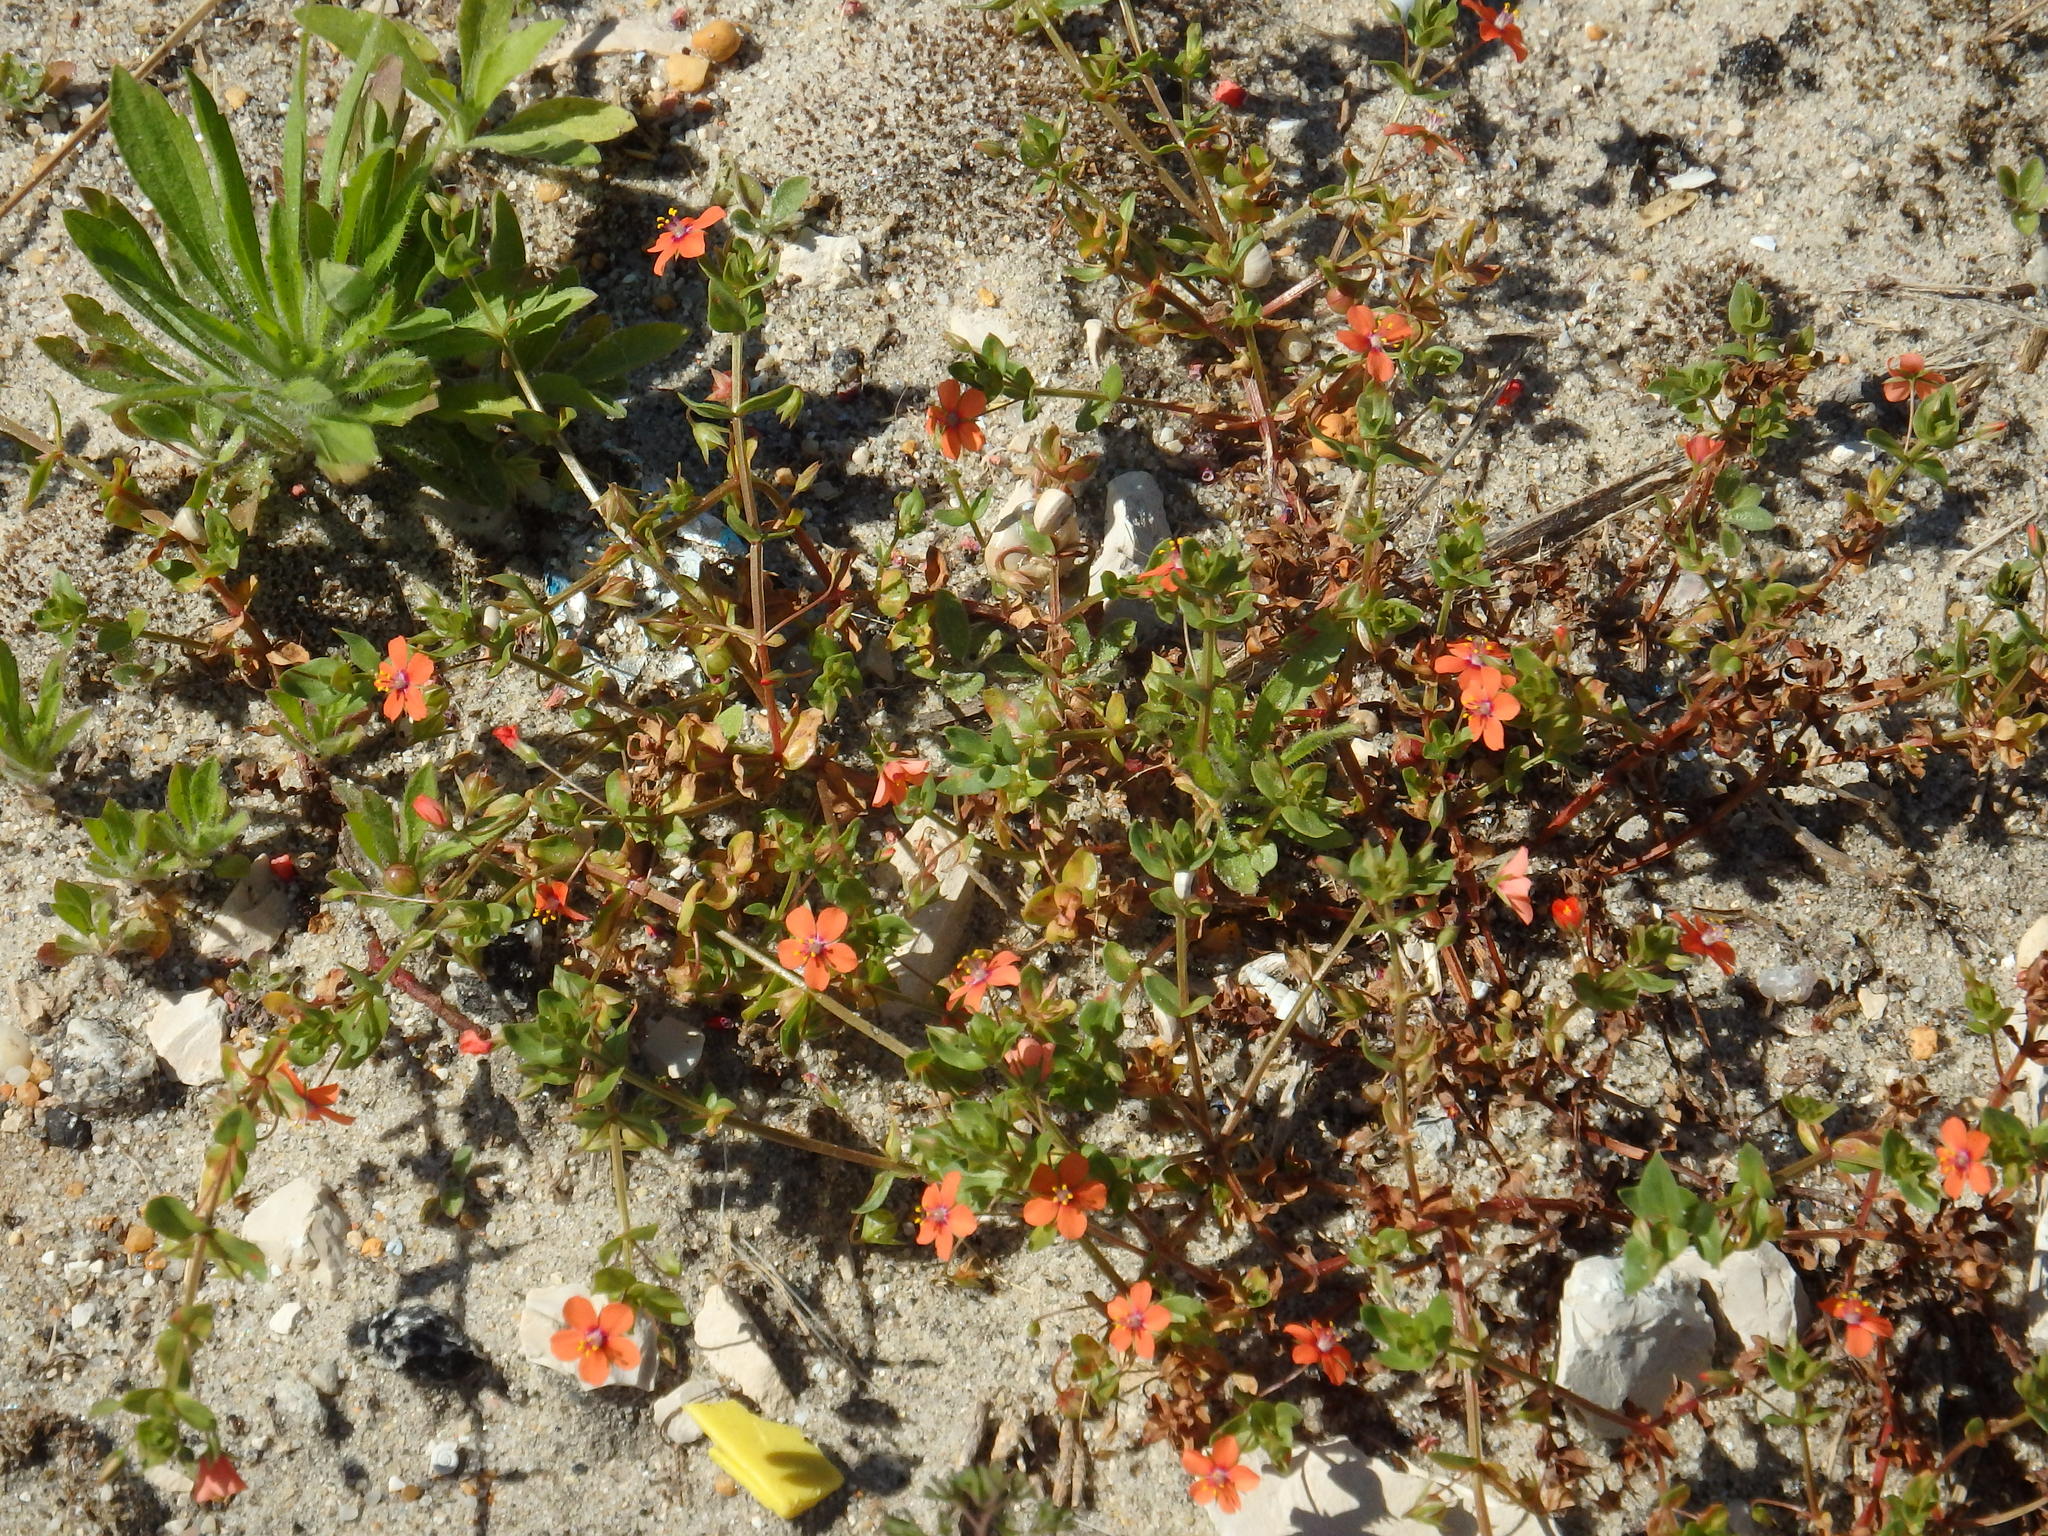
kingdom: Plantae
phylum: Tracheophyta
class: Magnoliopsida
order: Ericales
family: Primulaceae
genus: Lysimachia
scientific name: Lysimachia arvensis
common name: Scarlet pimpernel
